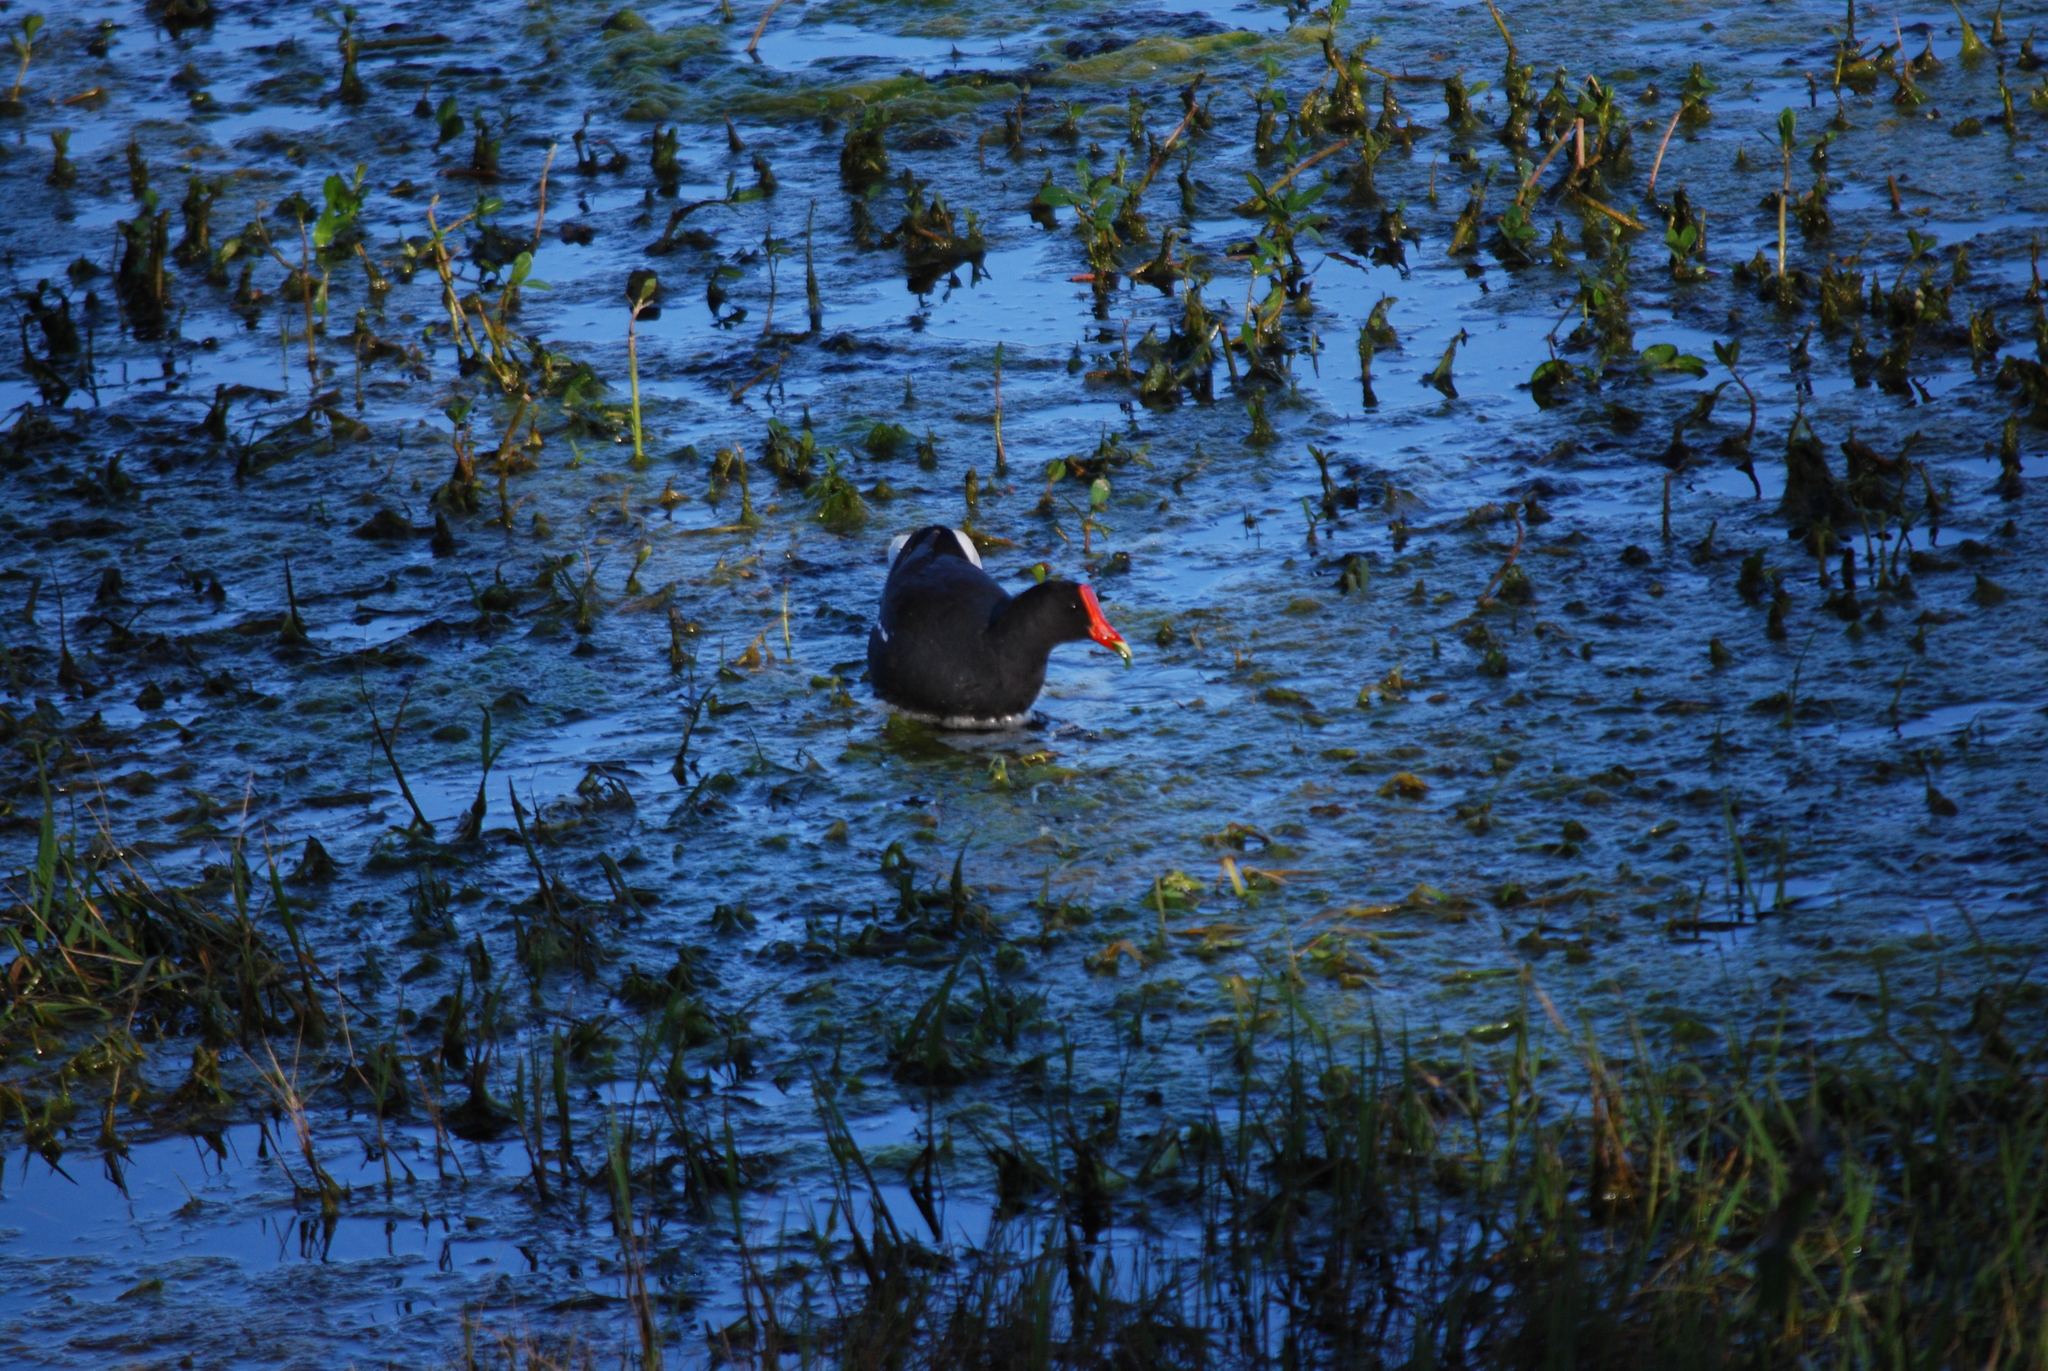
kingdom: Animalia
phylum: Chordata
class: Aves
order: Gruiformes
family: Rallidae
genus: Gallinula
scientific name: Gallinula chloropus
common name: Common moorhen
